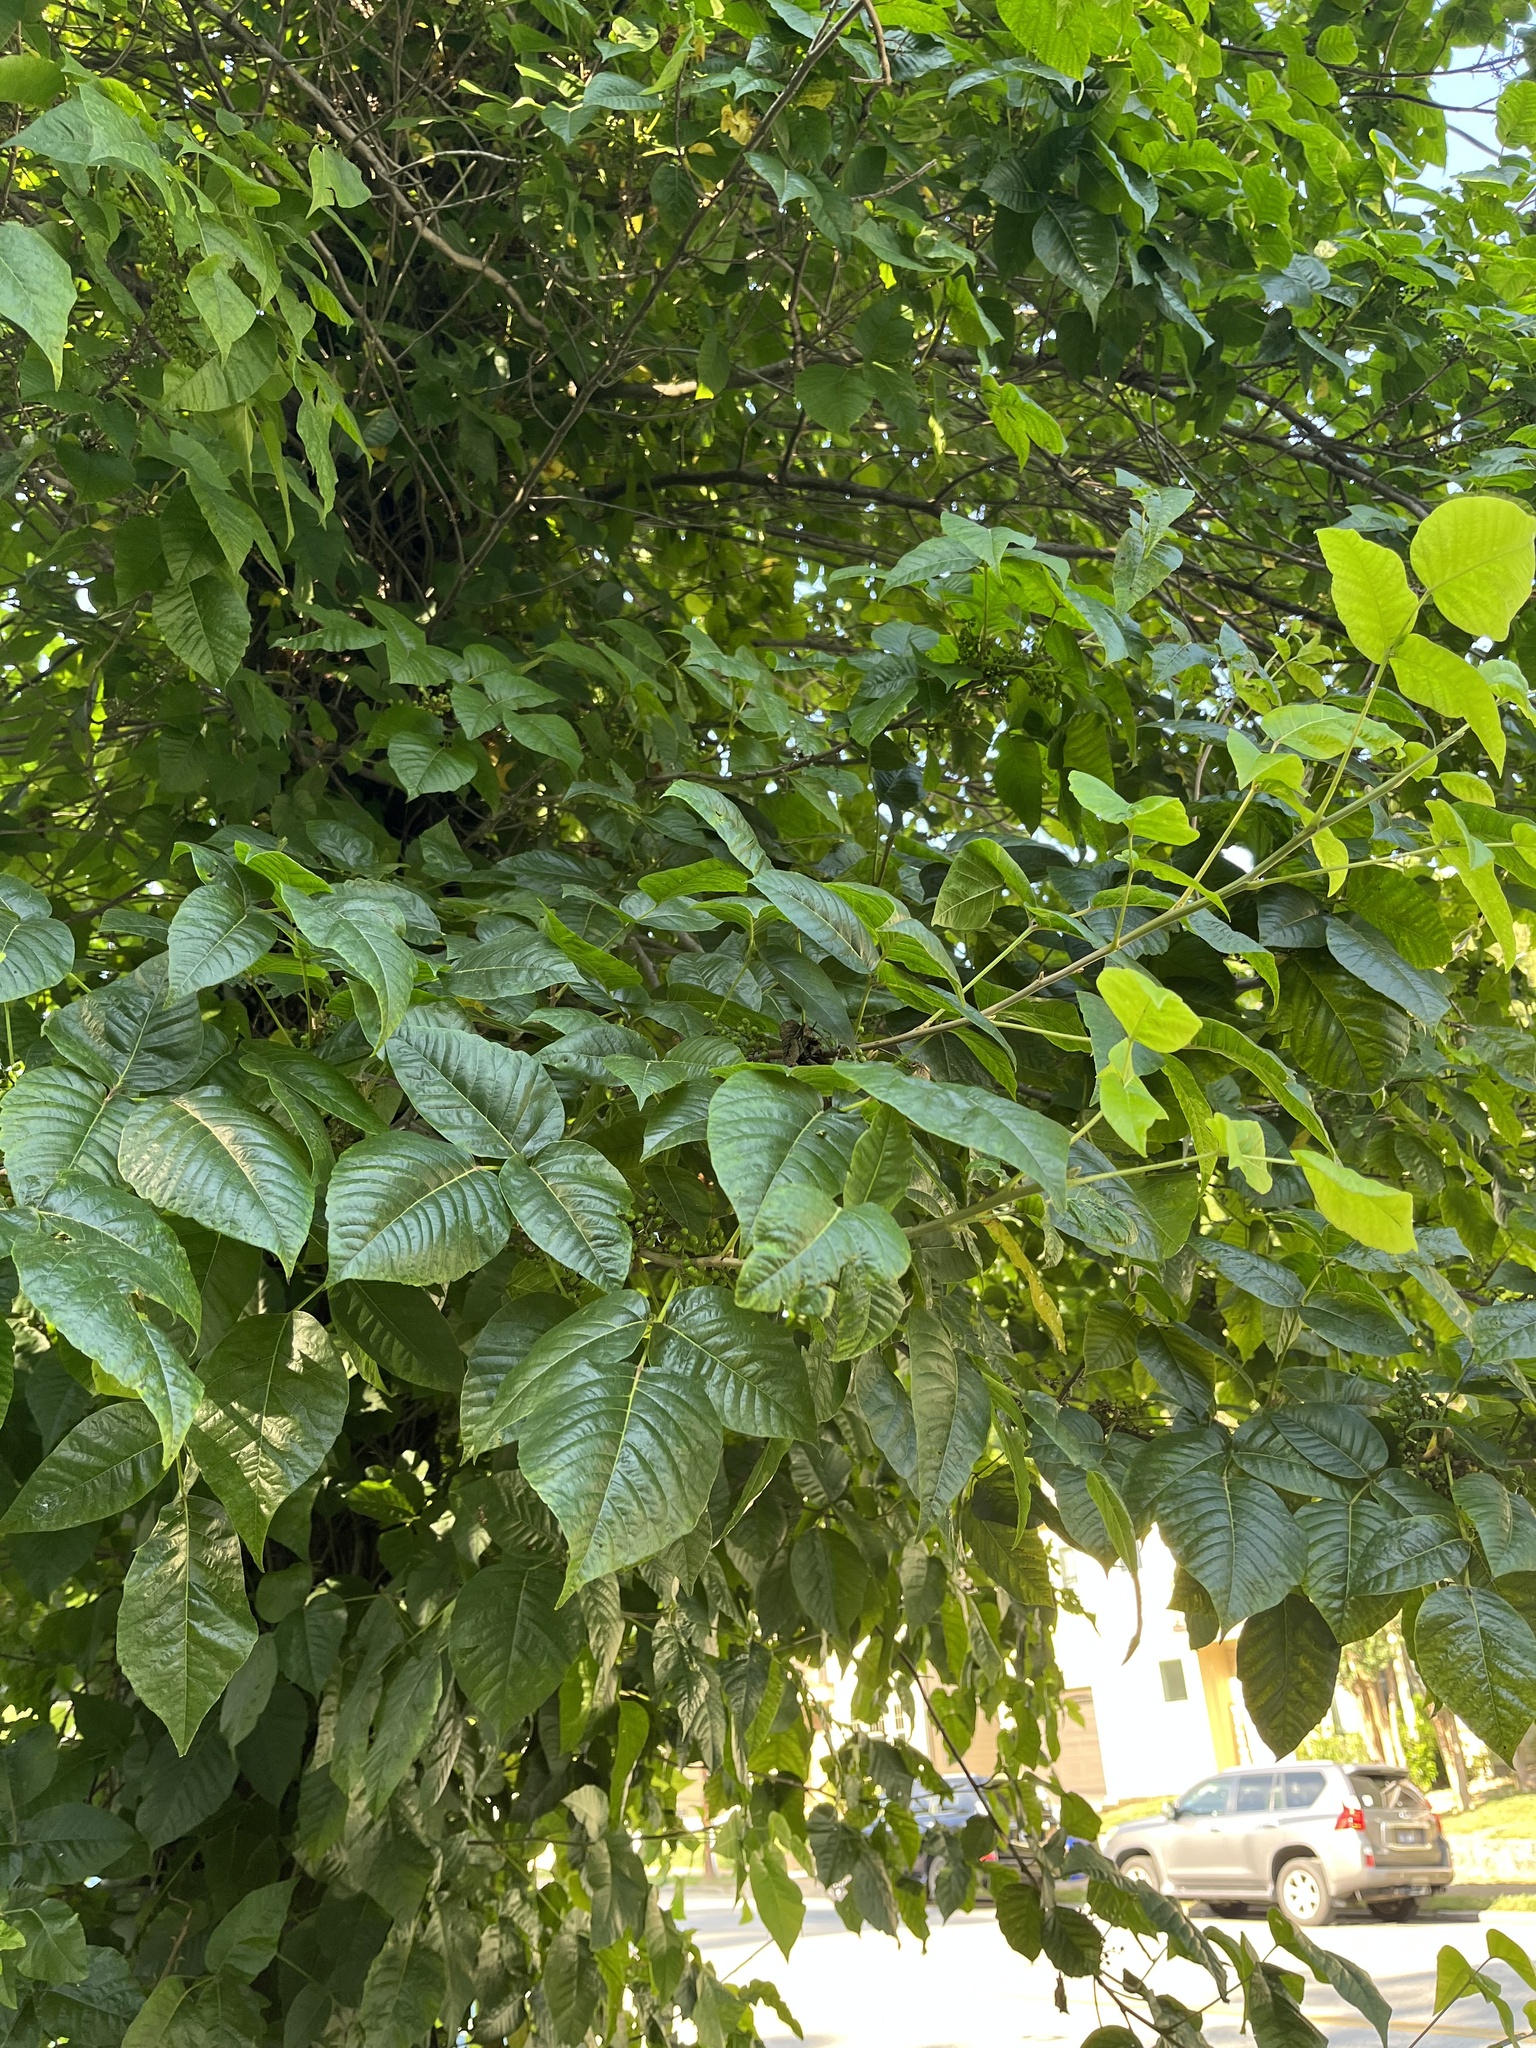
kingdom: Plantae
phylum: Tracheophyta
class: Magnoliopsida
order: Sapindales
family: Anacardiaceae
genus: Toxicodendron
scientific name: Toxicodendron radicans
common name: Poison ivy
